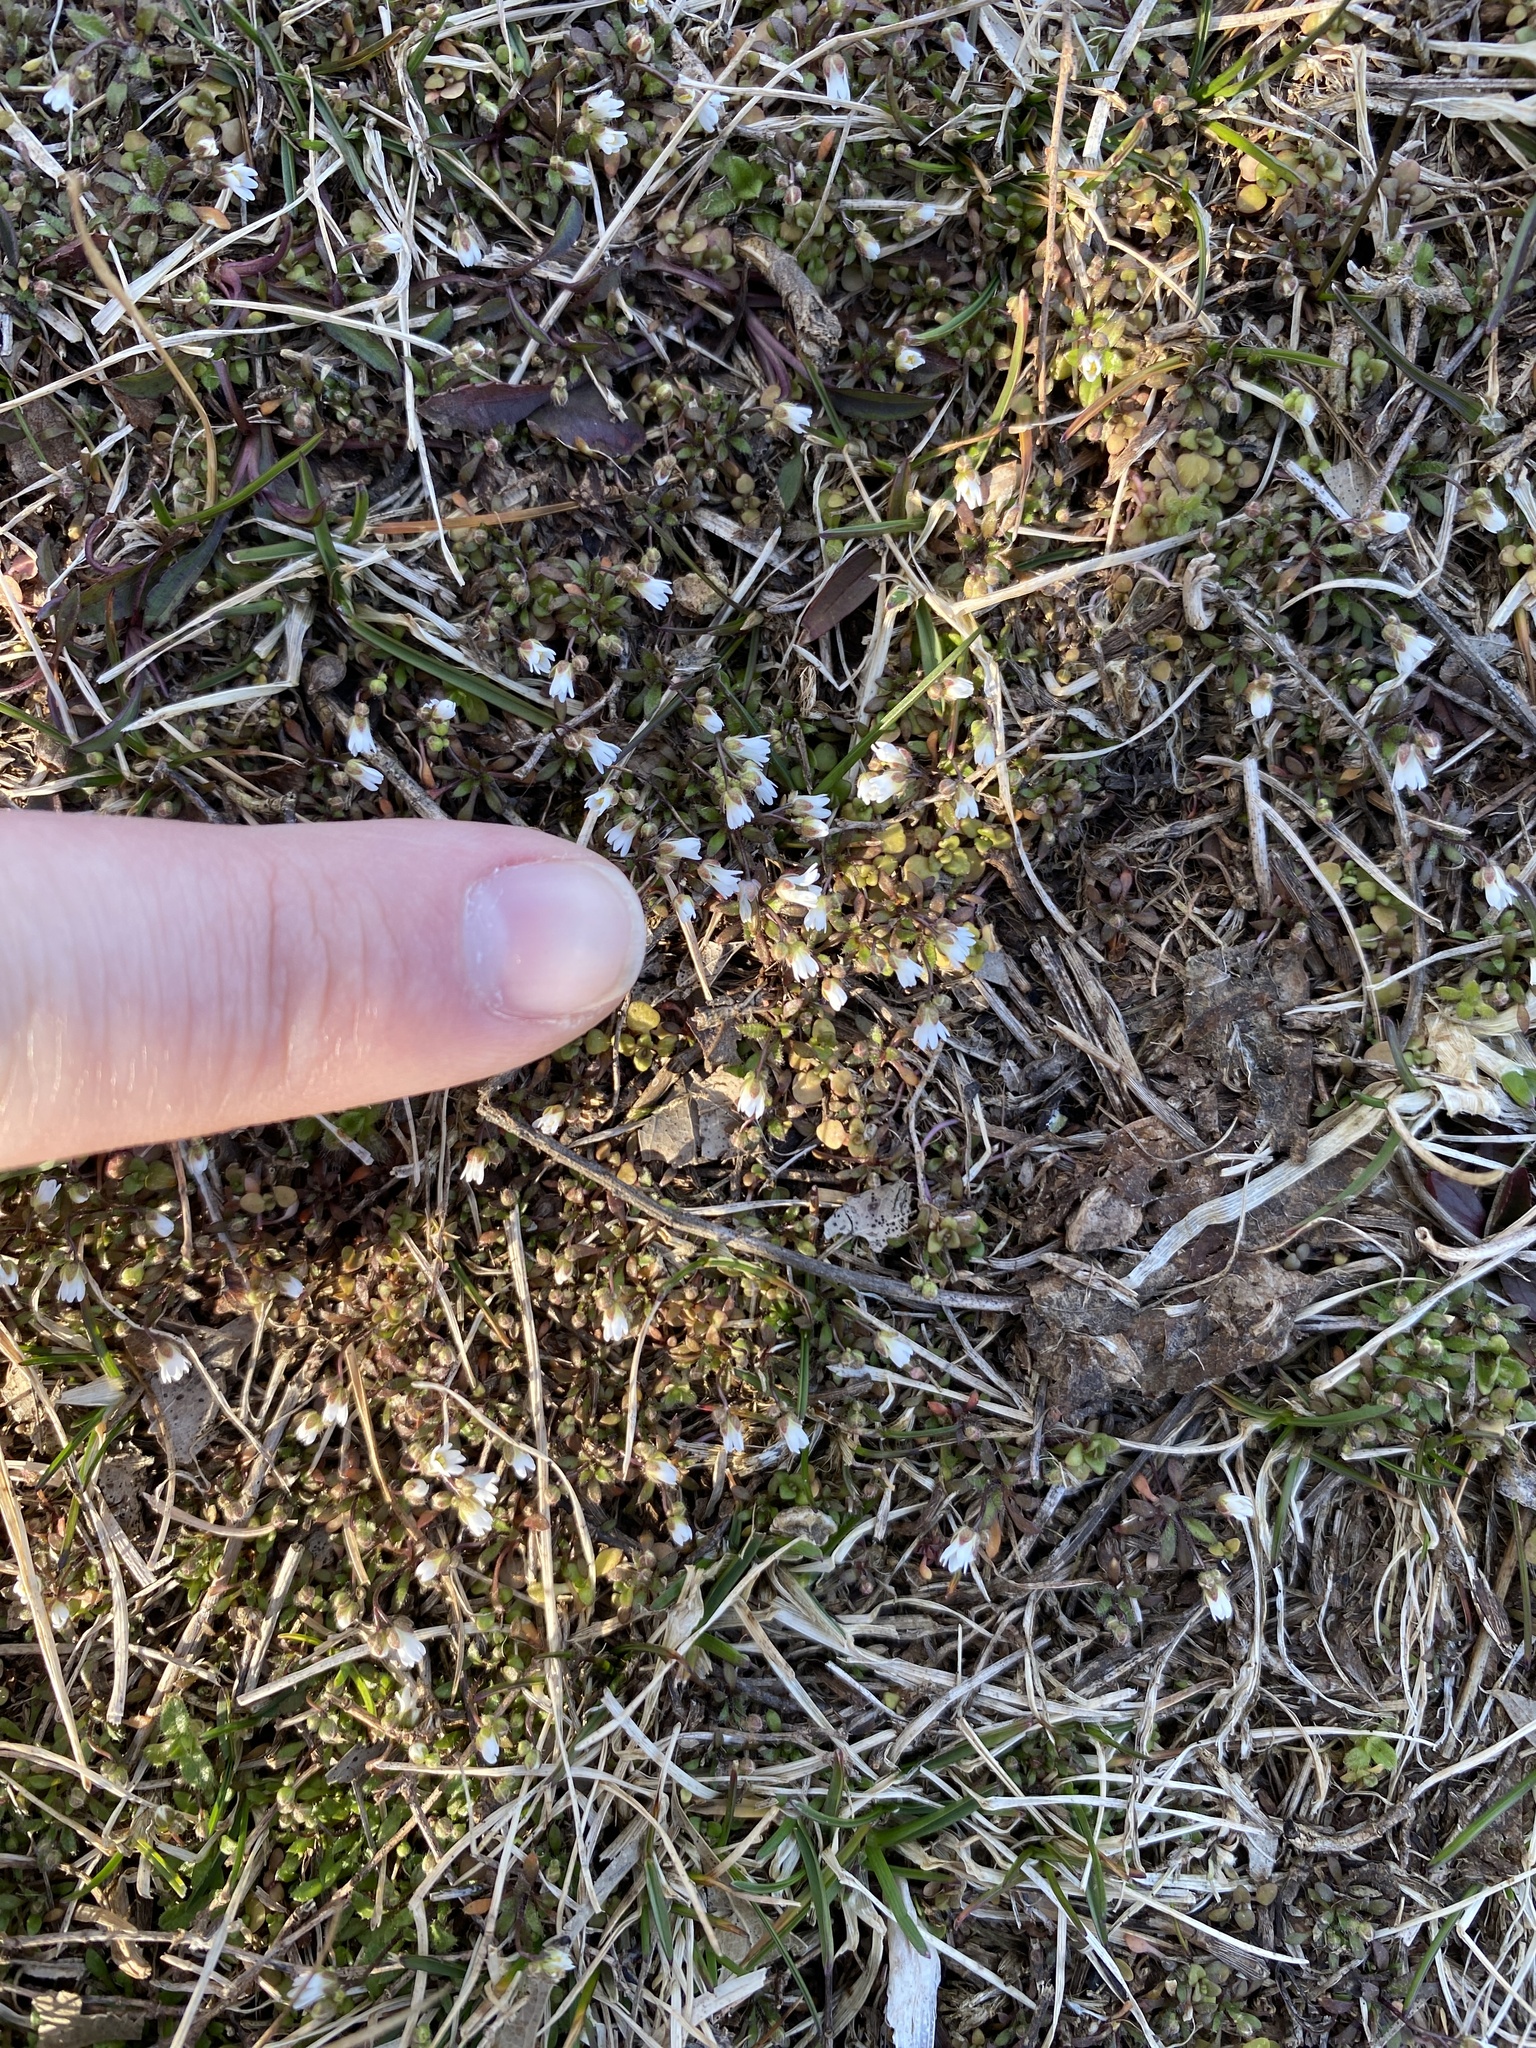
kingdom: Plantae
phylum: Tracheophyta
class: Magnoliopsida
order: Brassicales
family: Brassicaceae
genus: Draba
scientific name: Draba verna
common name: Spring draba
